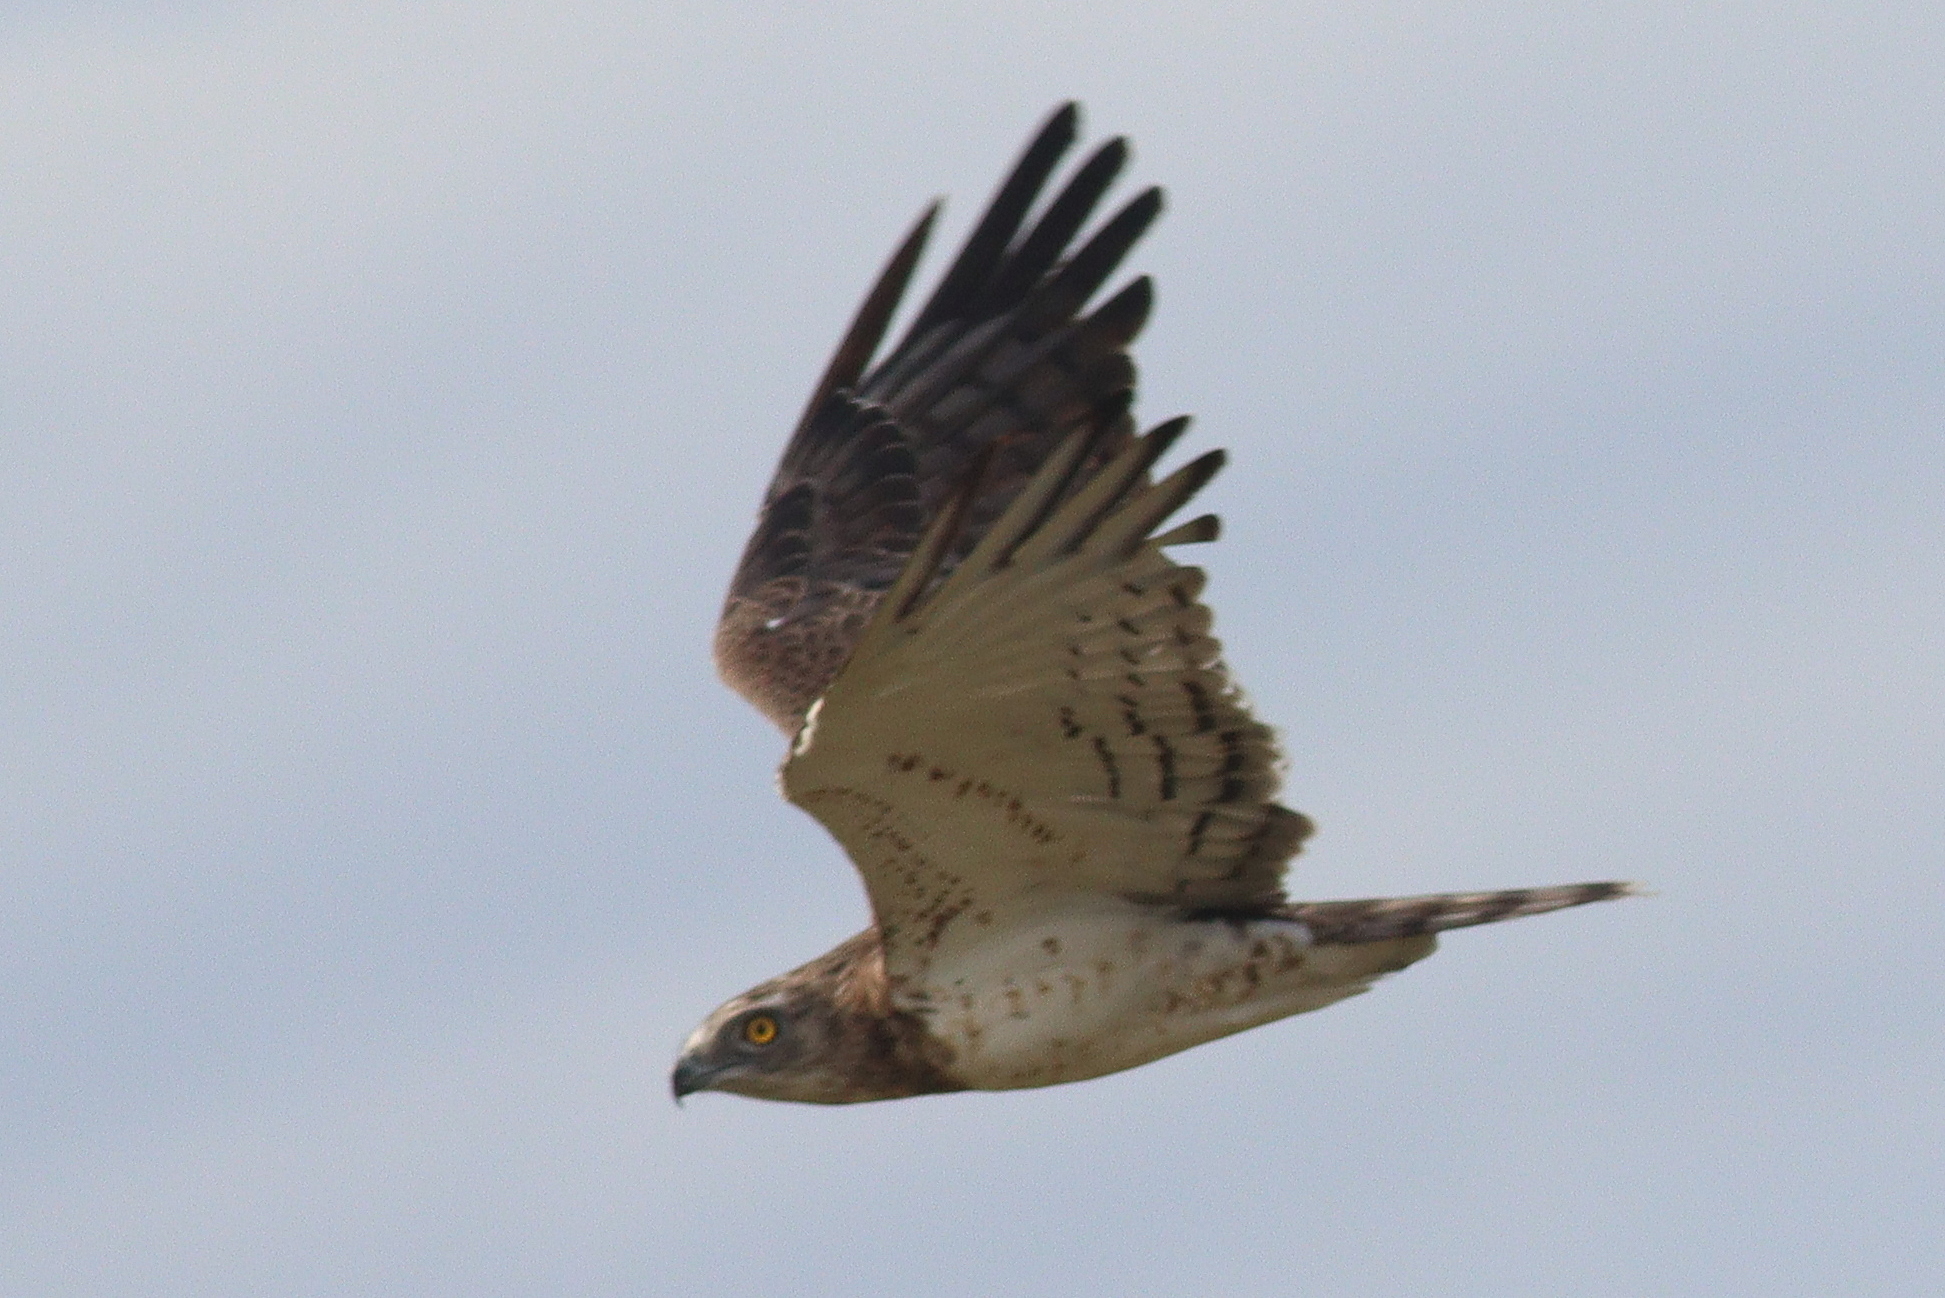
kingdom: Animalia
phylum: Chordata
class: Aves
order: Accipitriformes
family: Accipitridae
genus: Circaetus
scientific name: Circaetus pectoralis
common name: Black-chested snake eagle
